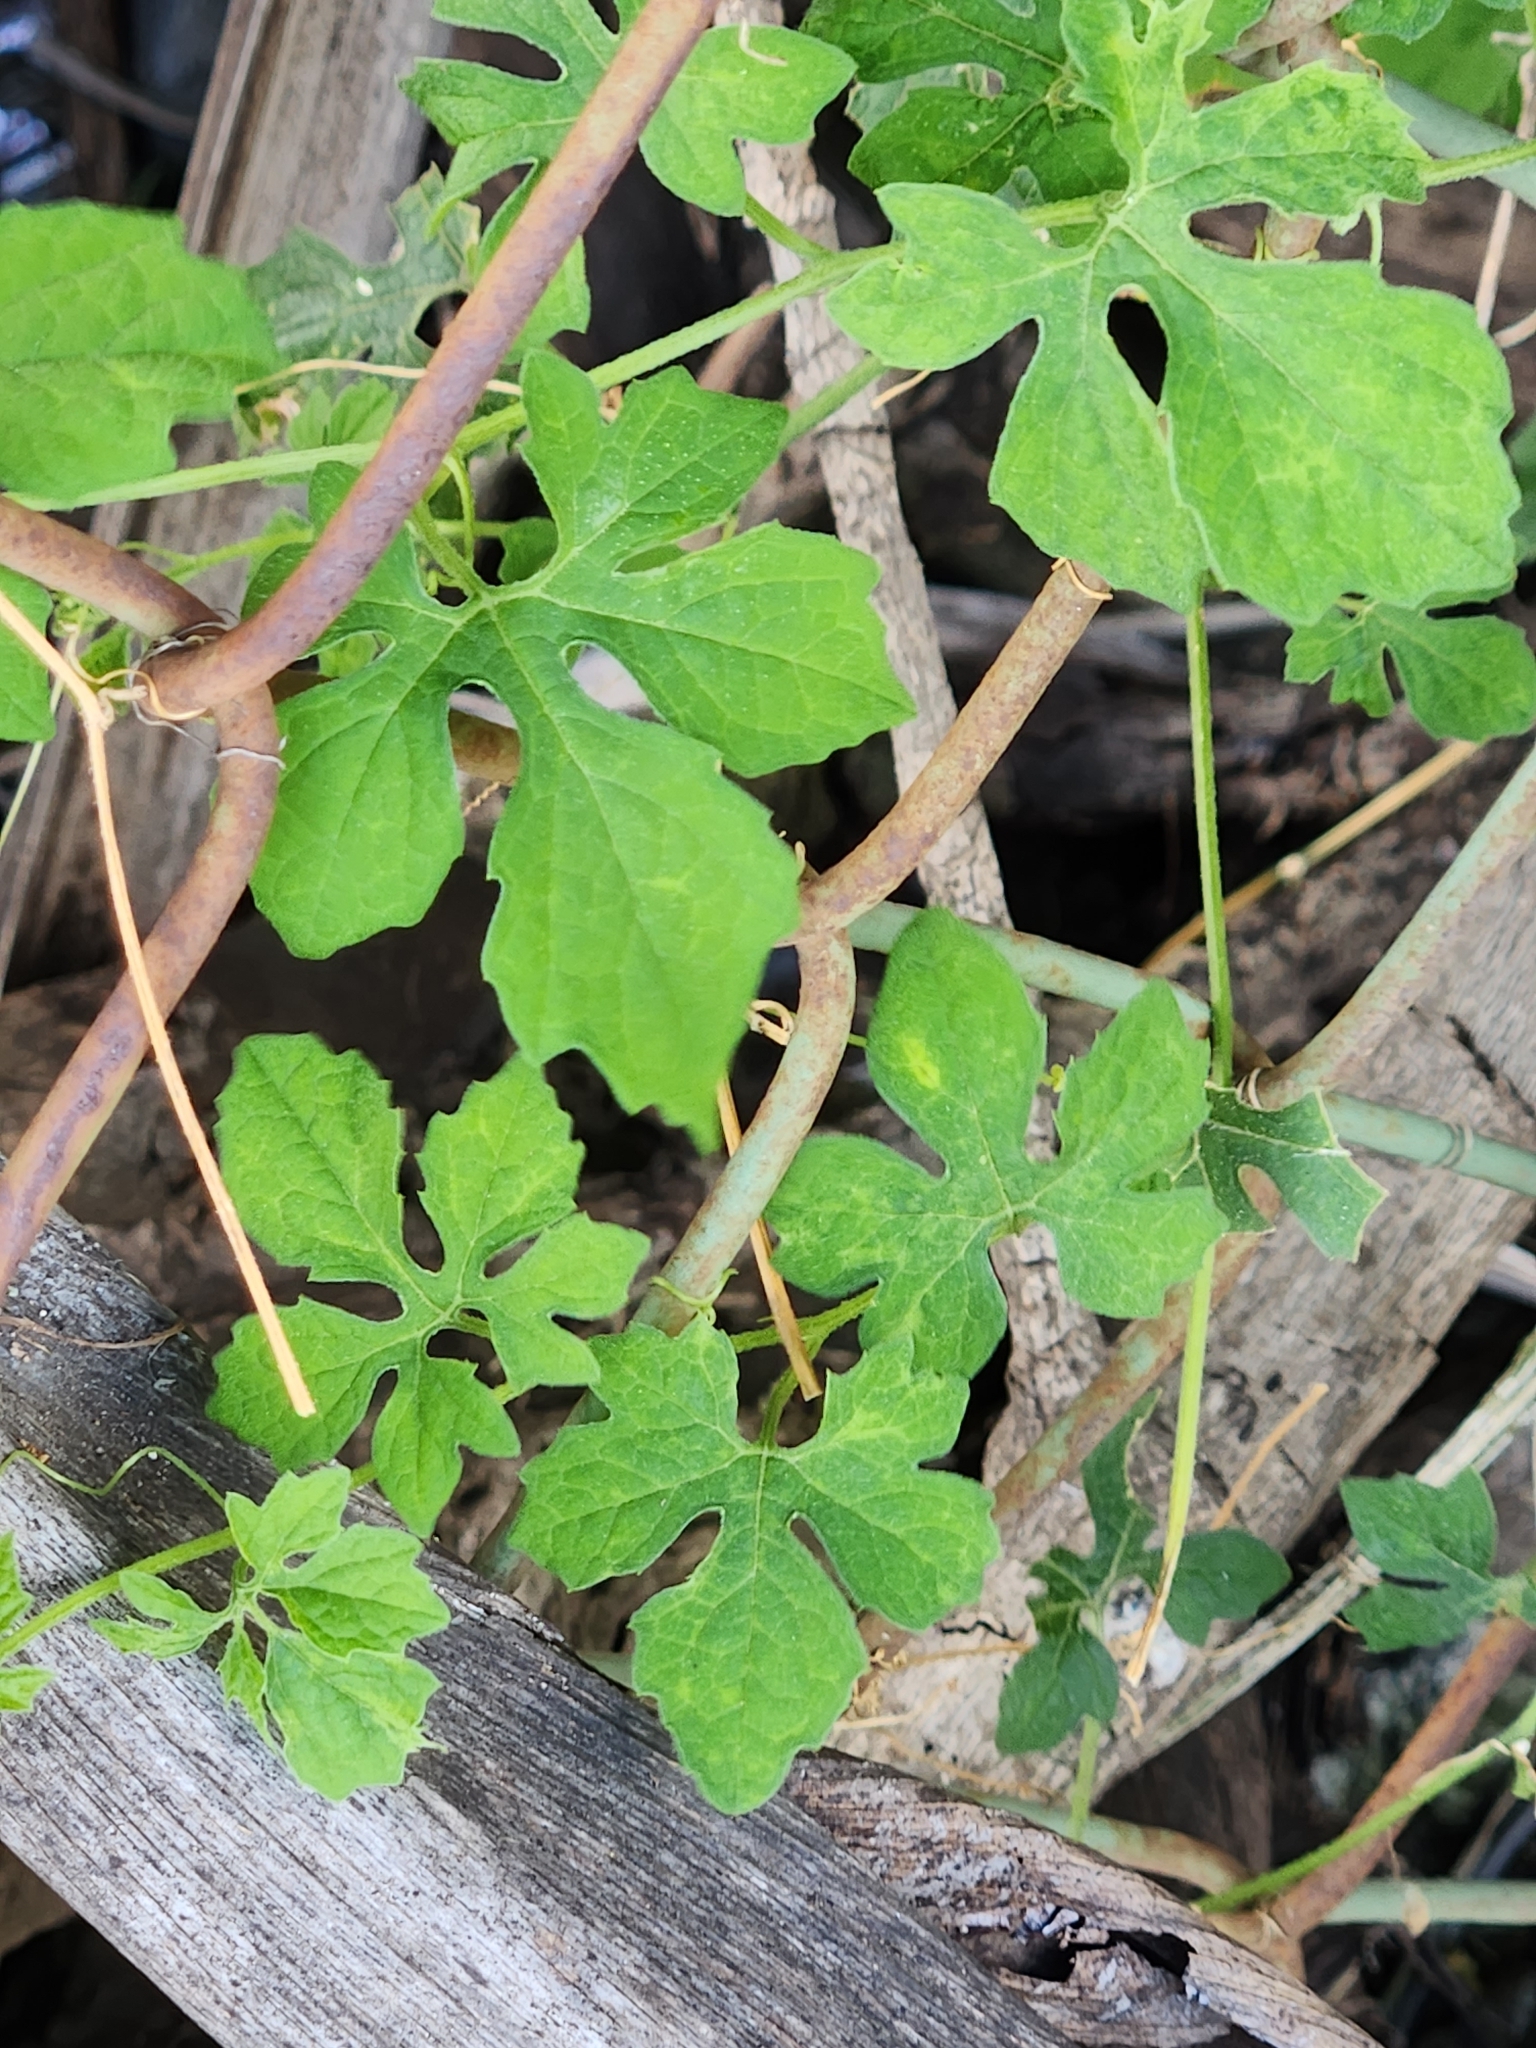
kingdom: Plantae
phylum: Tracheophyta
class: Magnoliopsida
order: Cucurbitales
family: Cucurbitaceae
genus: Momordica
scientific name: Momordica charantia
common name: Balsampear
